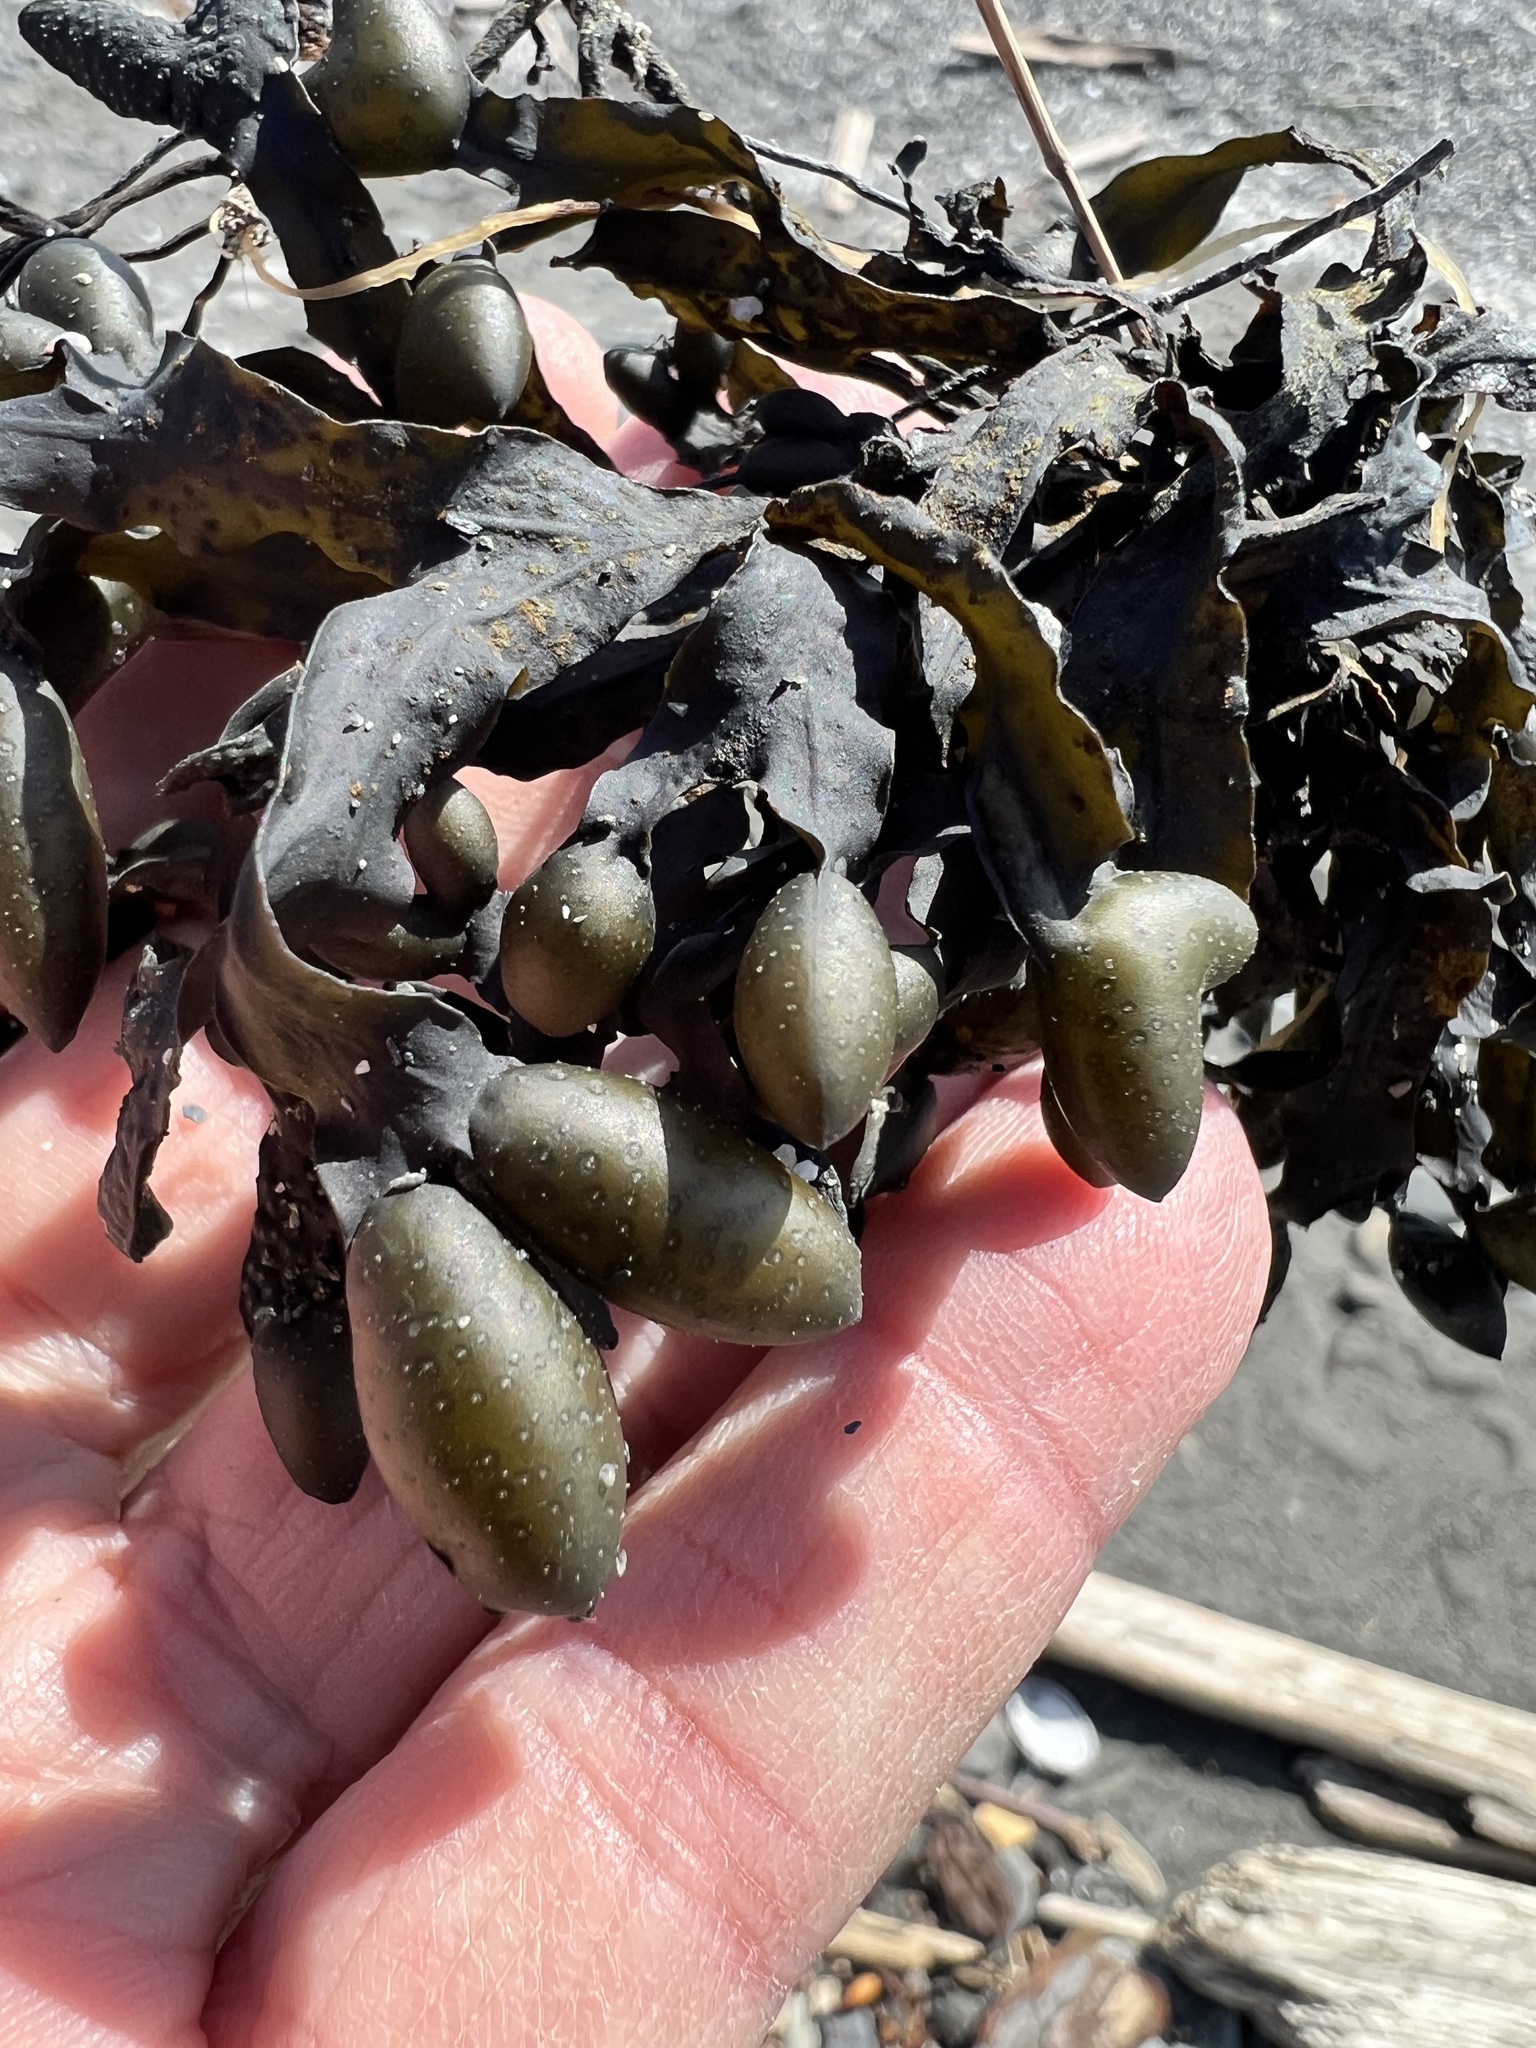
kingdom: Chromista
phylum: Ochrophyta
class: Phaeophyceae
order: Fucales
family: Fucaceae
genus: Fucus
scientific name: Fucus distichus
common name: Rockweed
